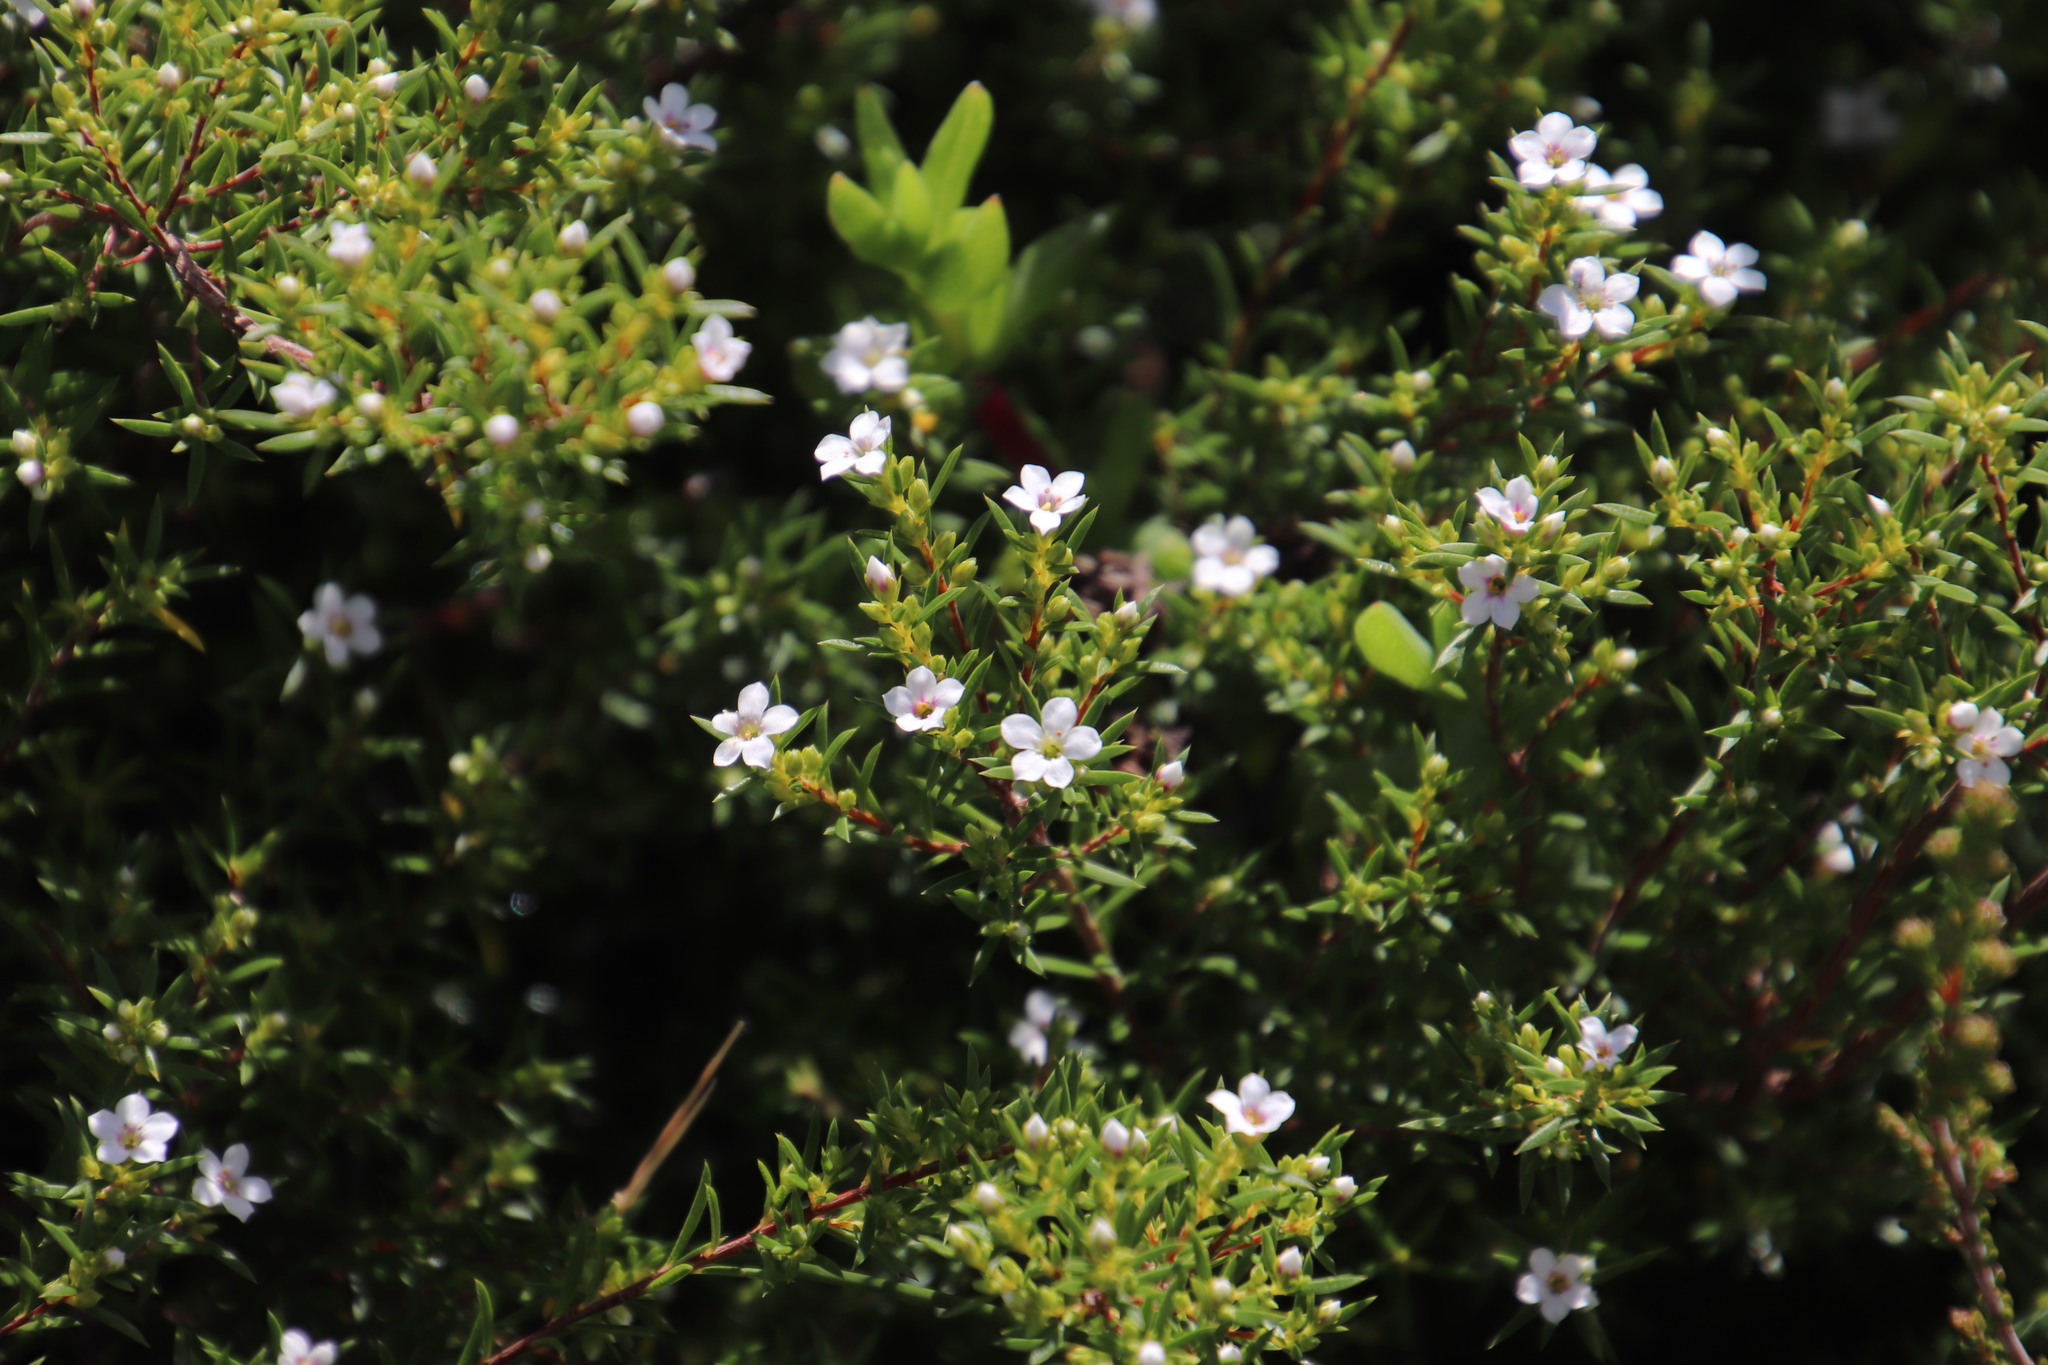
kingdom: Plantae
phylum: Tracheophyta
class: Magnoliopsida
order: Sapindales
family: Rutaceae
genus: Coleonema
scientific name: Coleonema album
